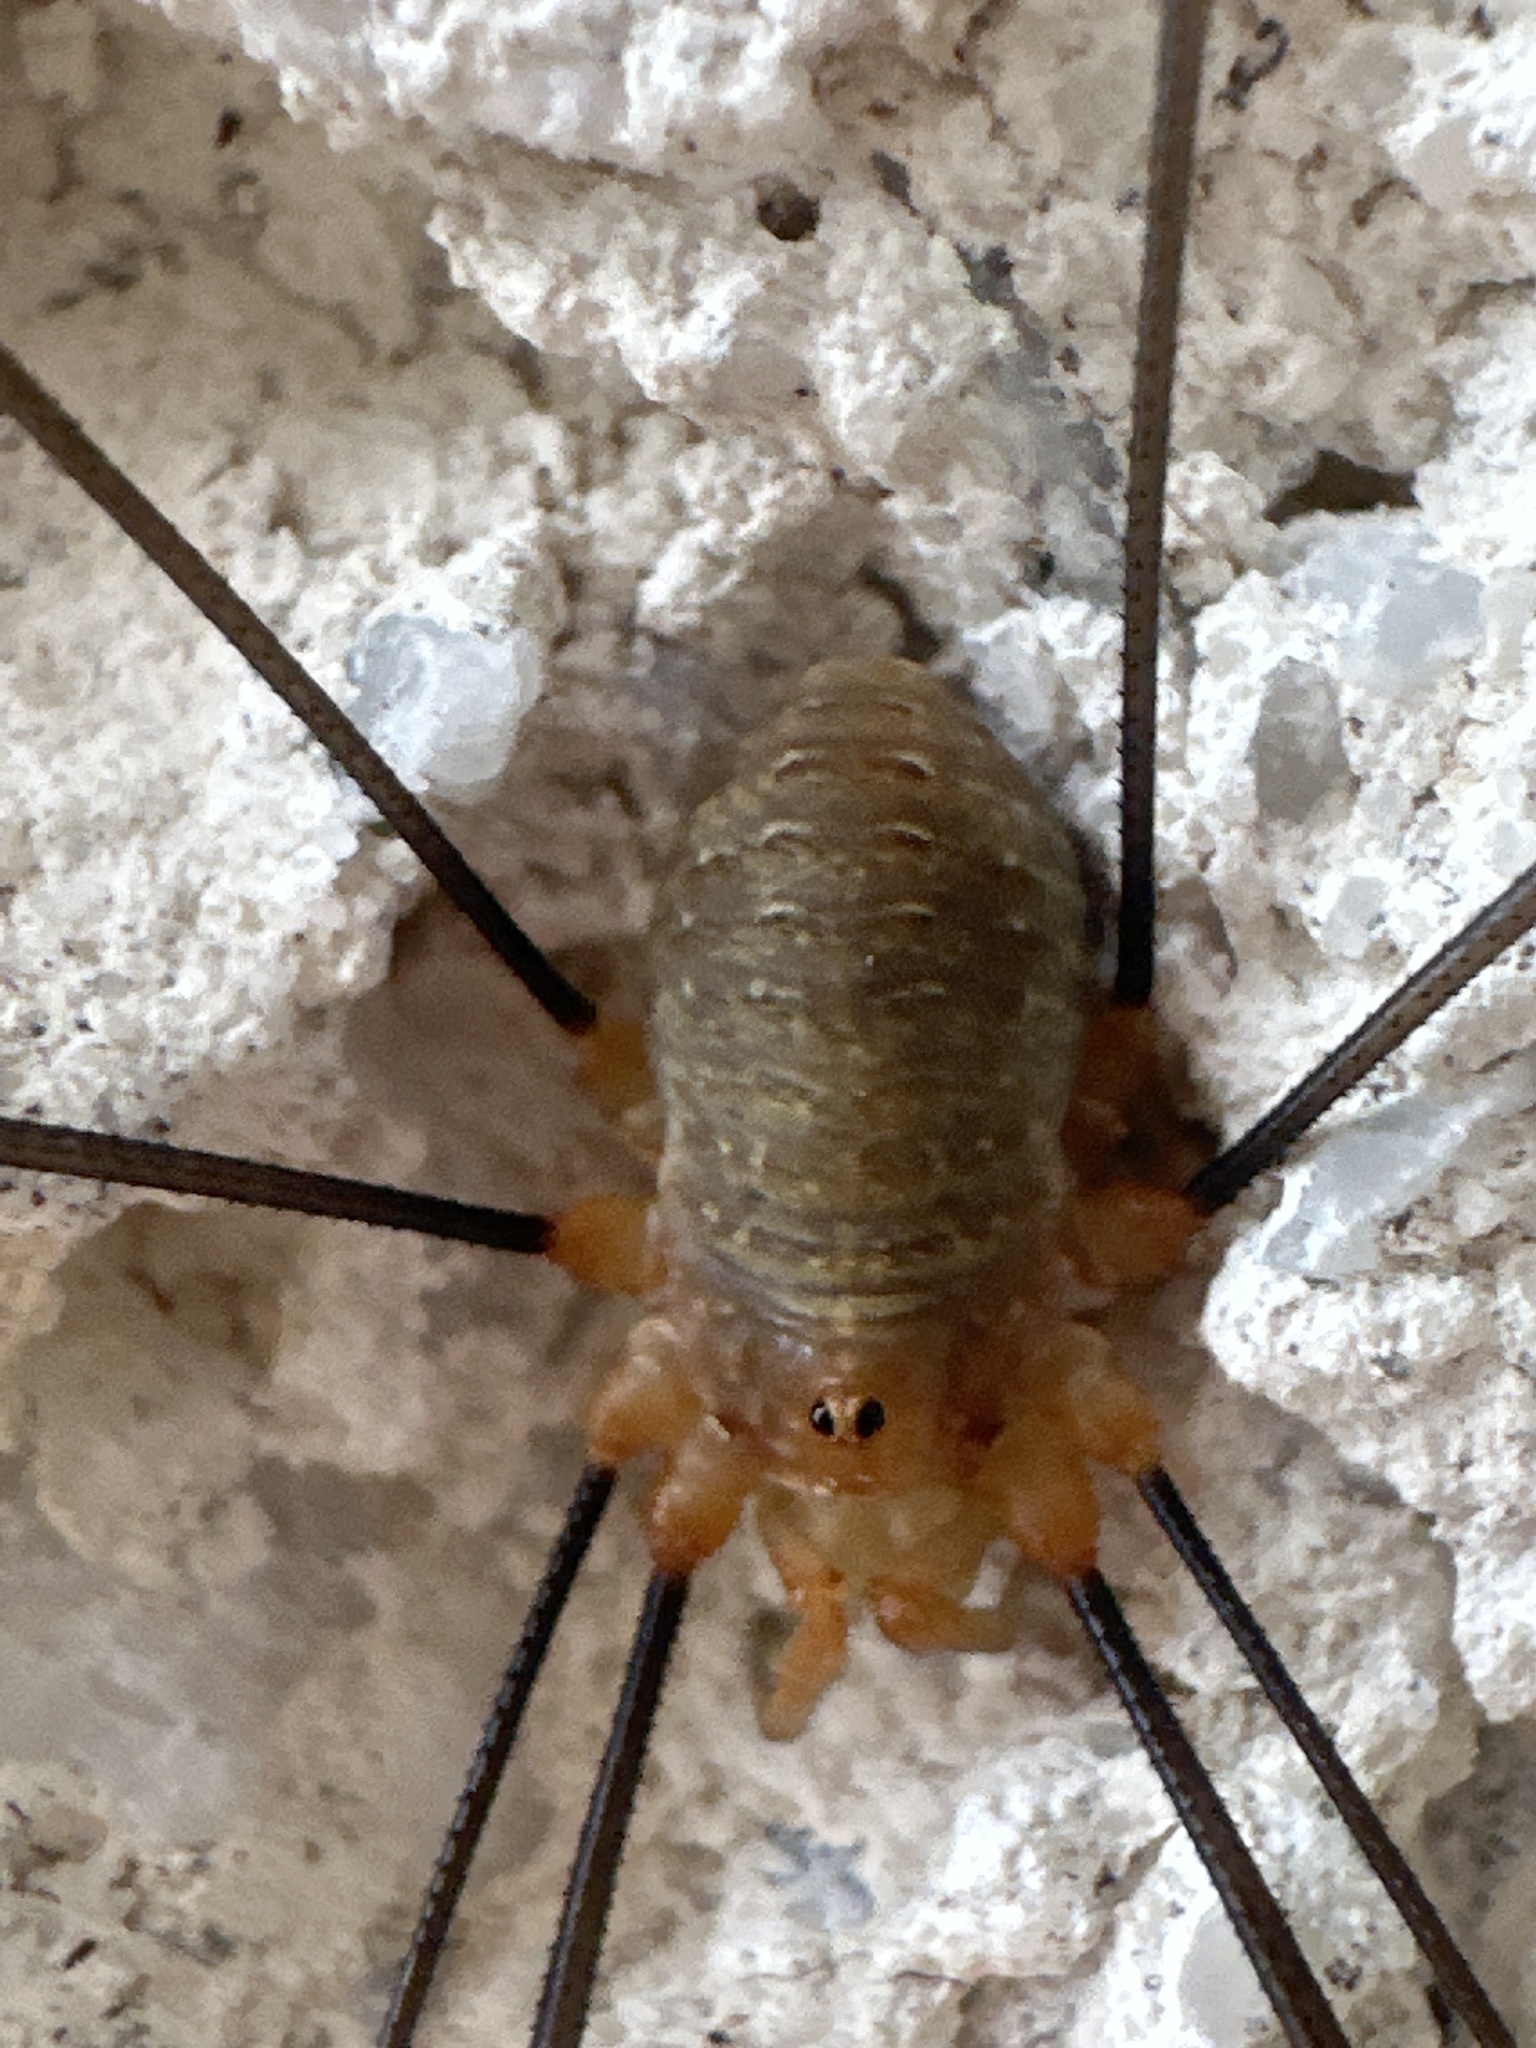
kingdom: Animalia
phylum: Arthropoda
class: Arachnida
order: Opiliones
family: Phalangiidae
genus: Opilio
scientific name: Opilio canestrinii
